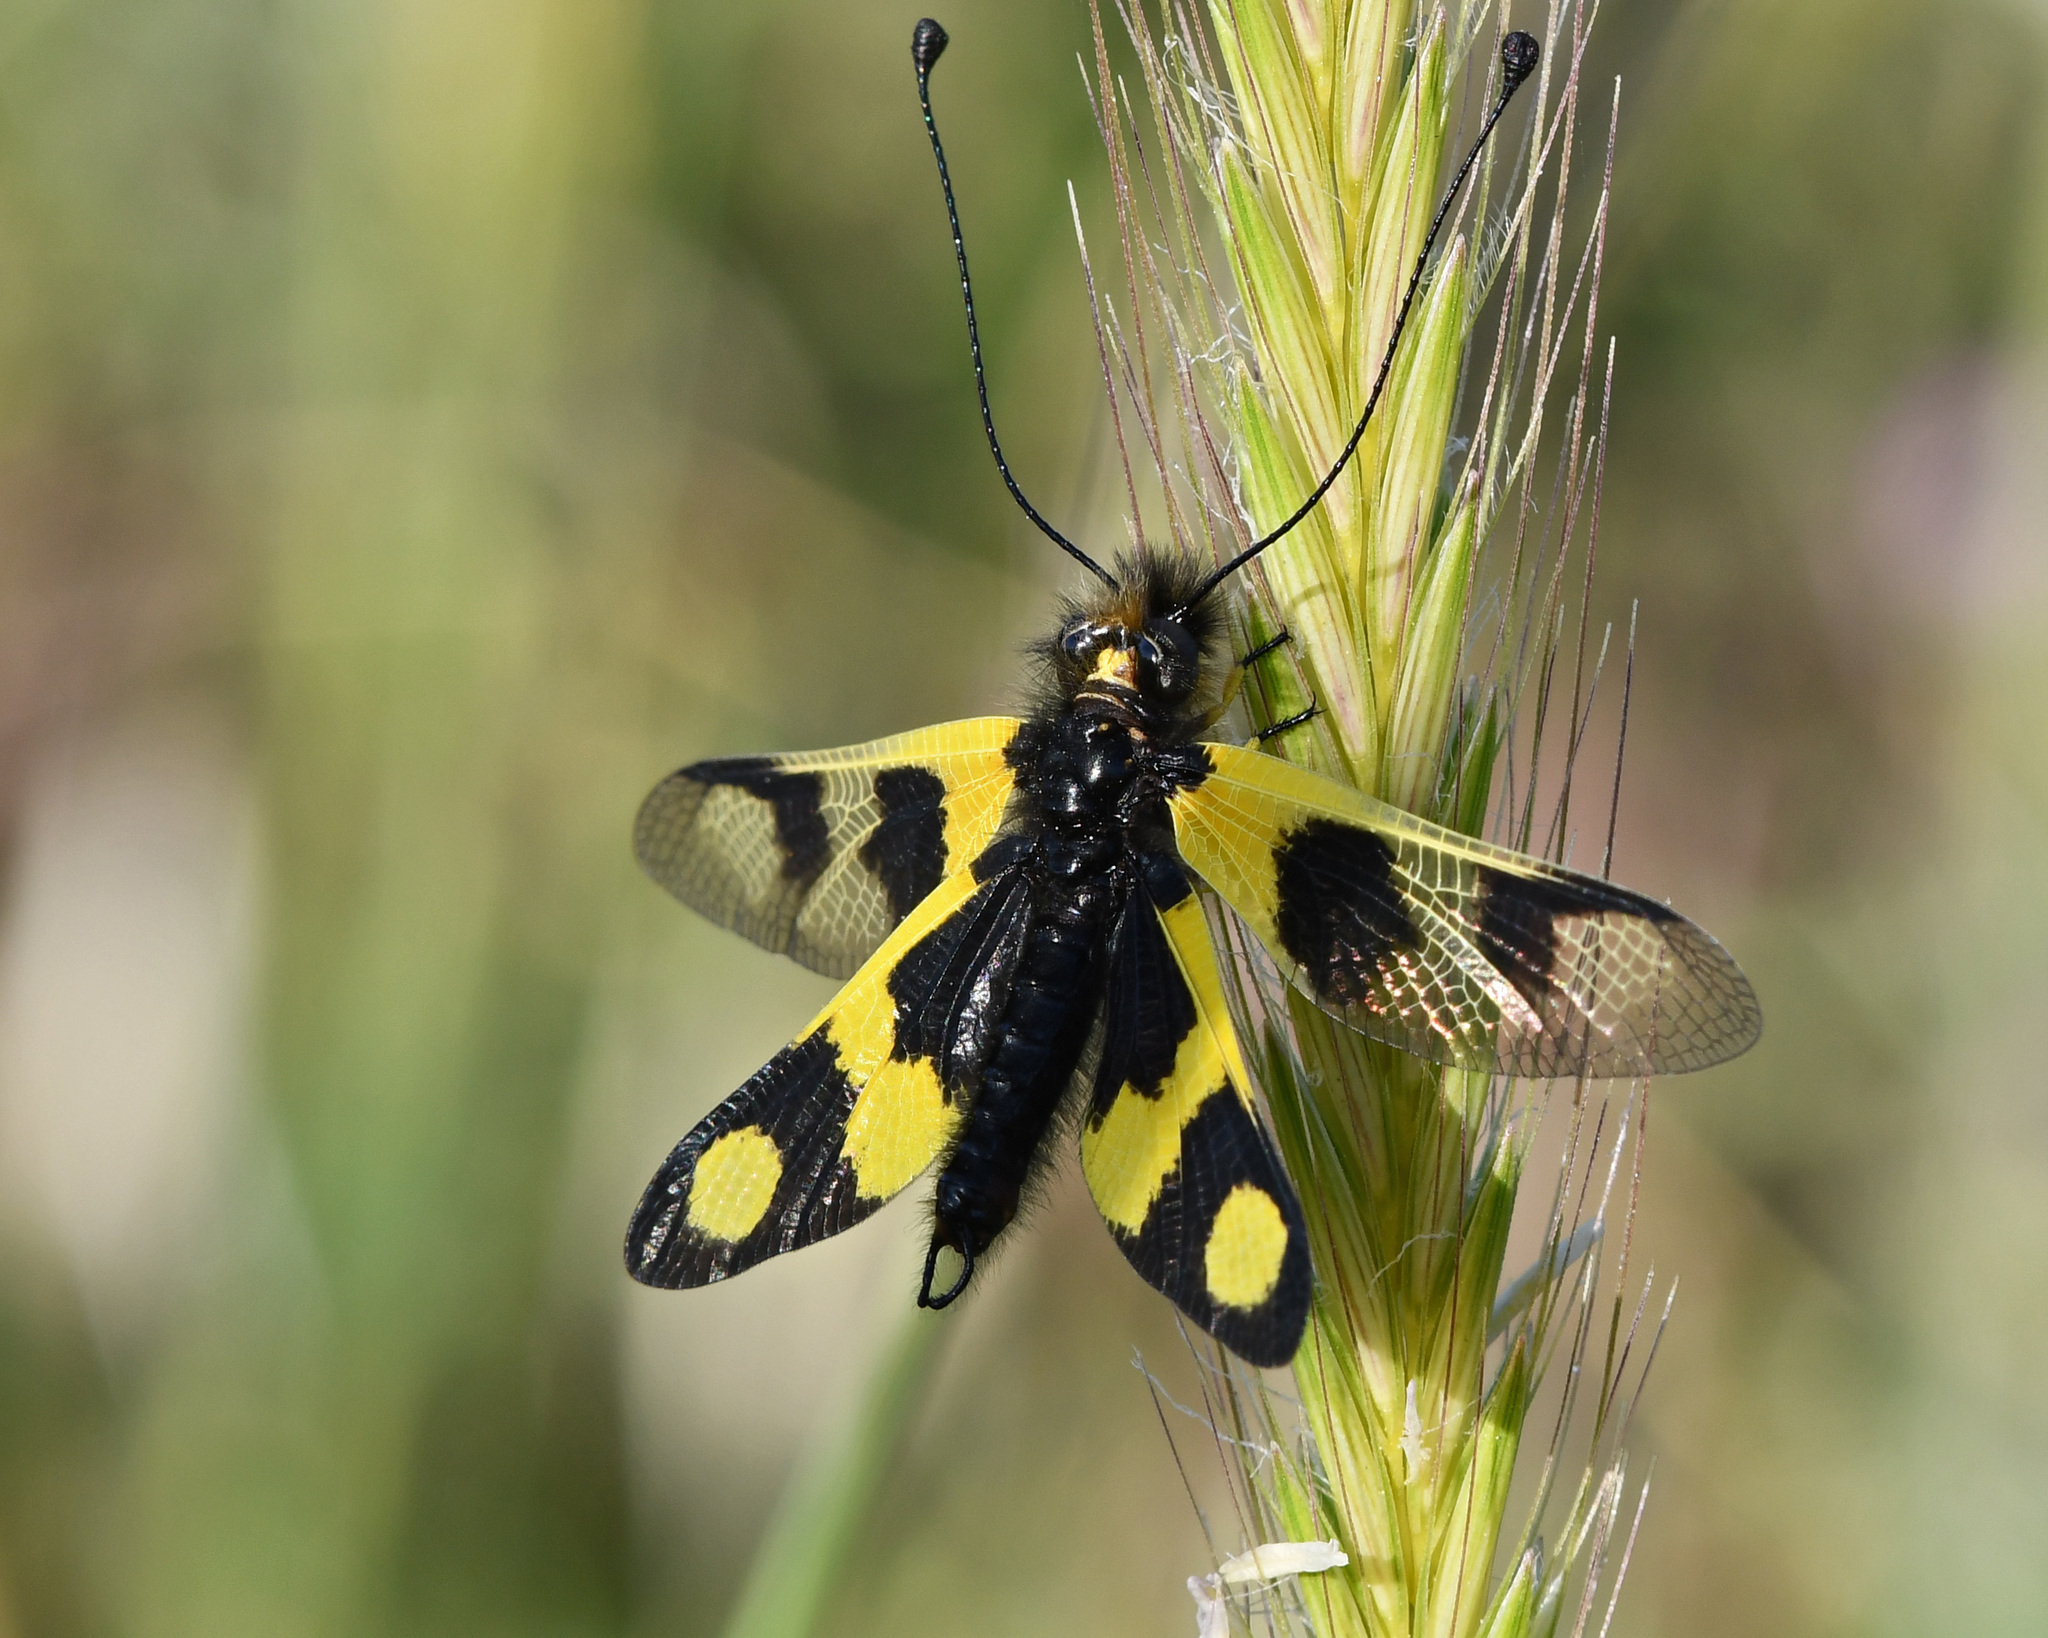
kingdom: Animalia
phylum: Arthropoda
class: Insecta
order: Neuroptera
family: Ascalaphidae
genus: Libelloides
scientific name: Libelloides macaronius
